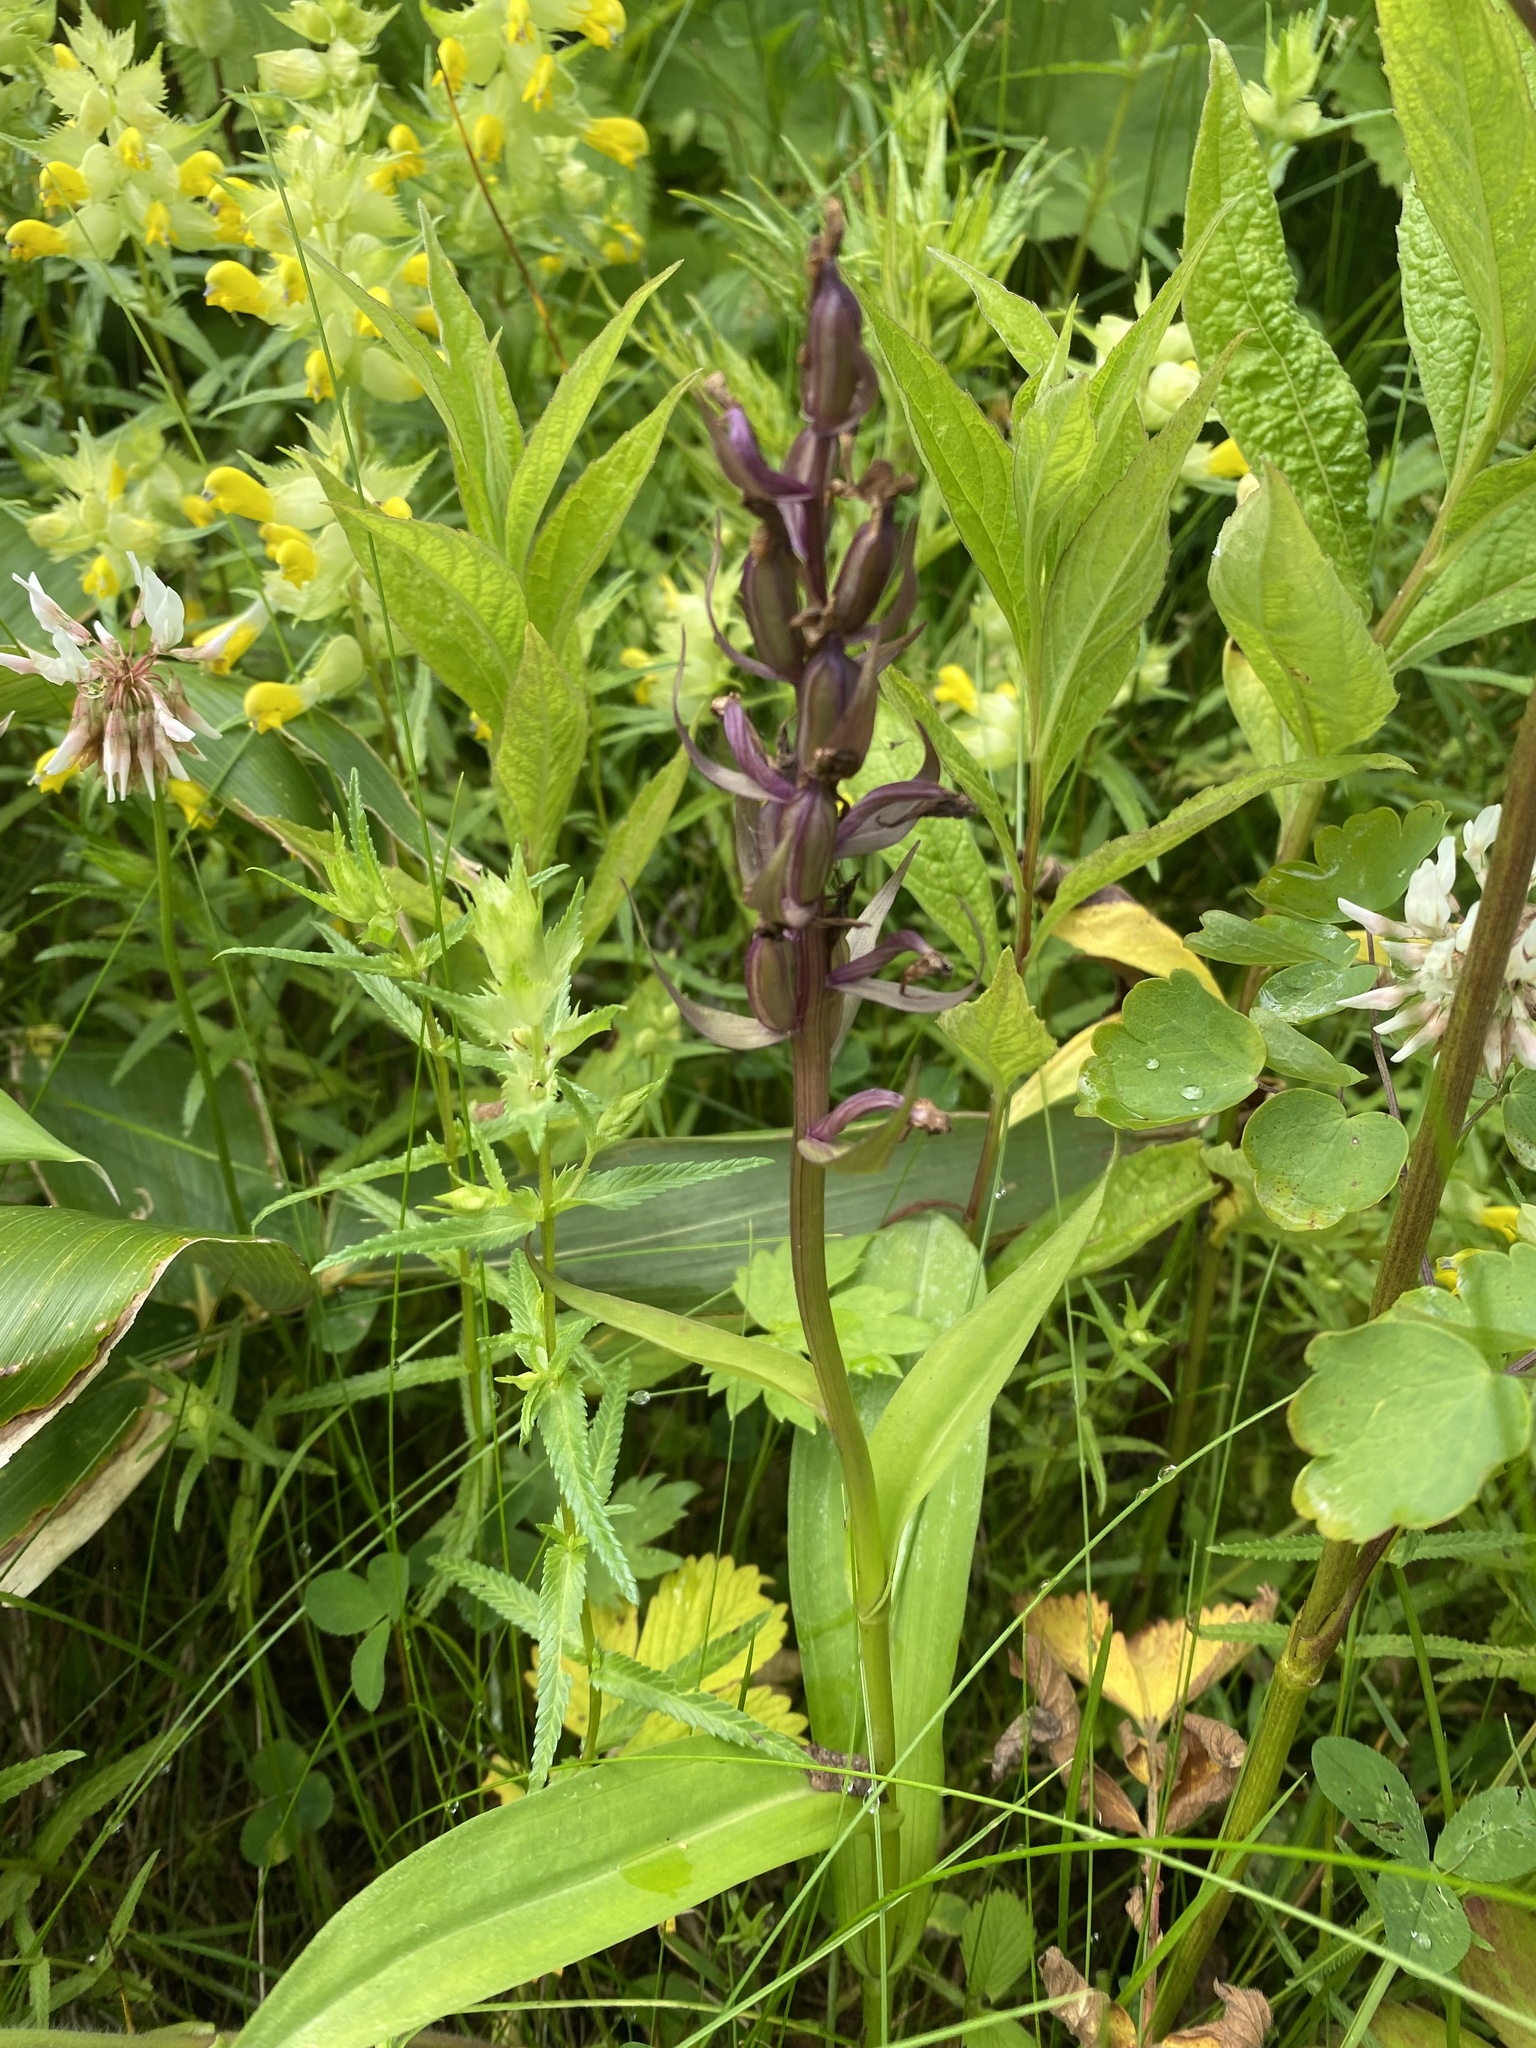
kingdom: Plantae
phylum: Tracheophyta
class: Liliopsida
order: Asparagales
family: Orchidaceae
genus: Dactylorhiza
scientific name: Dactylorhiza aristata
